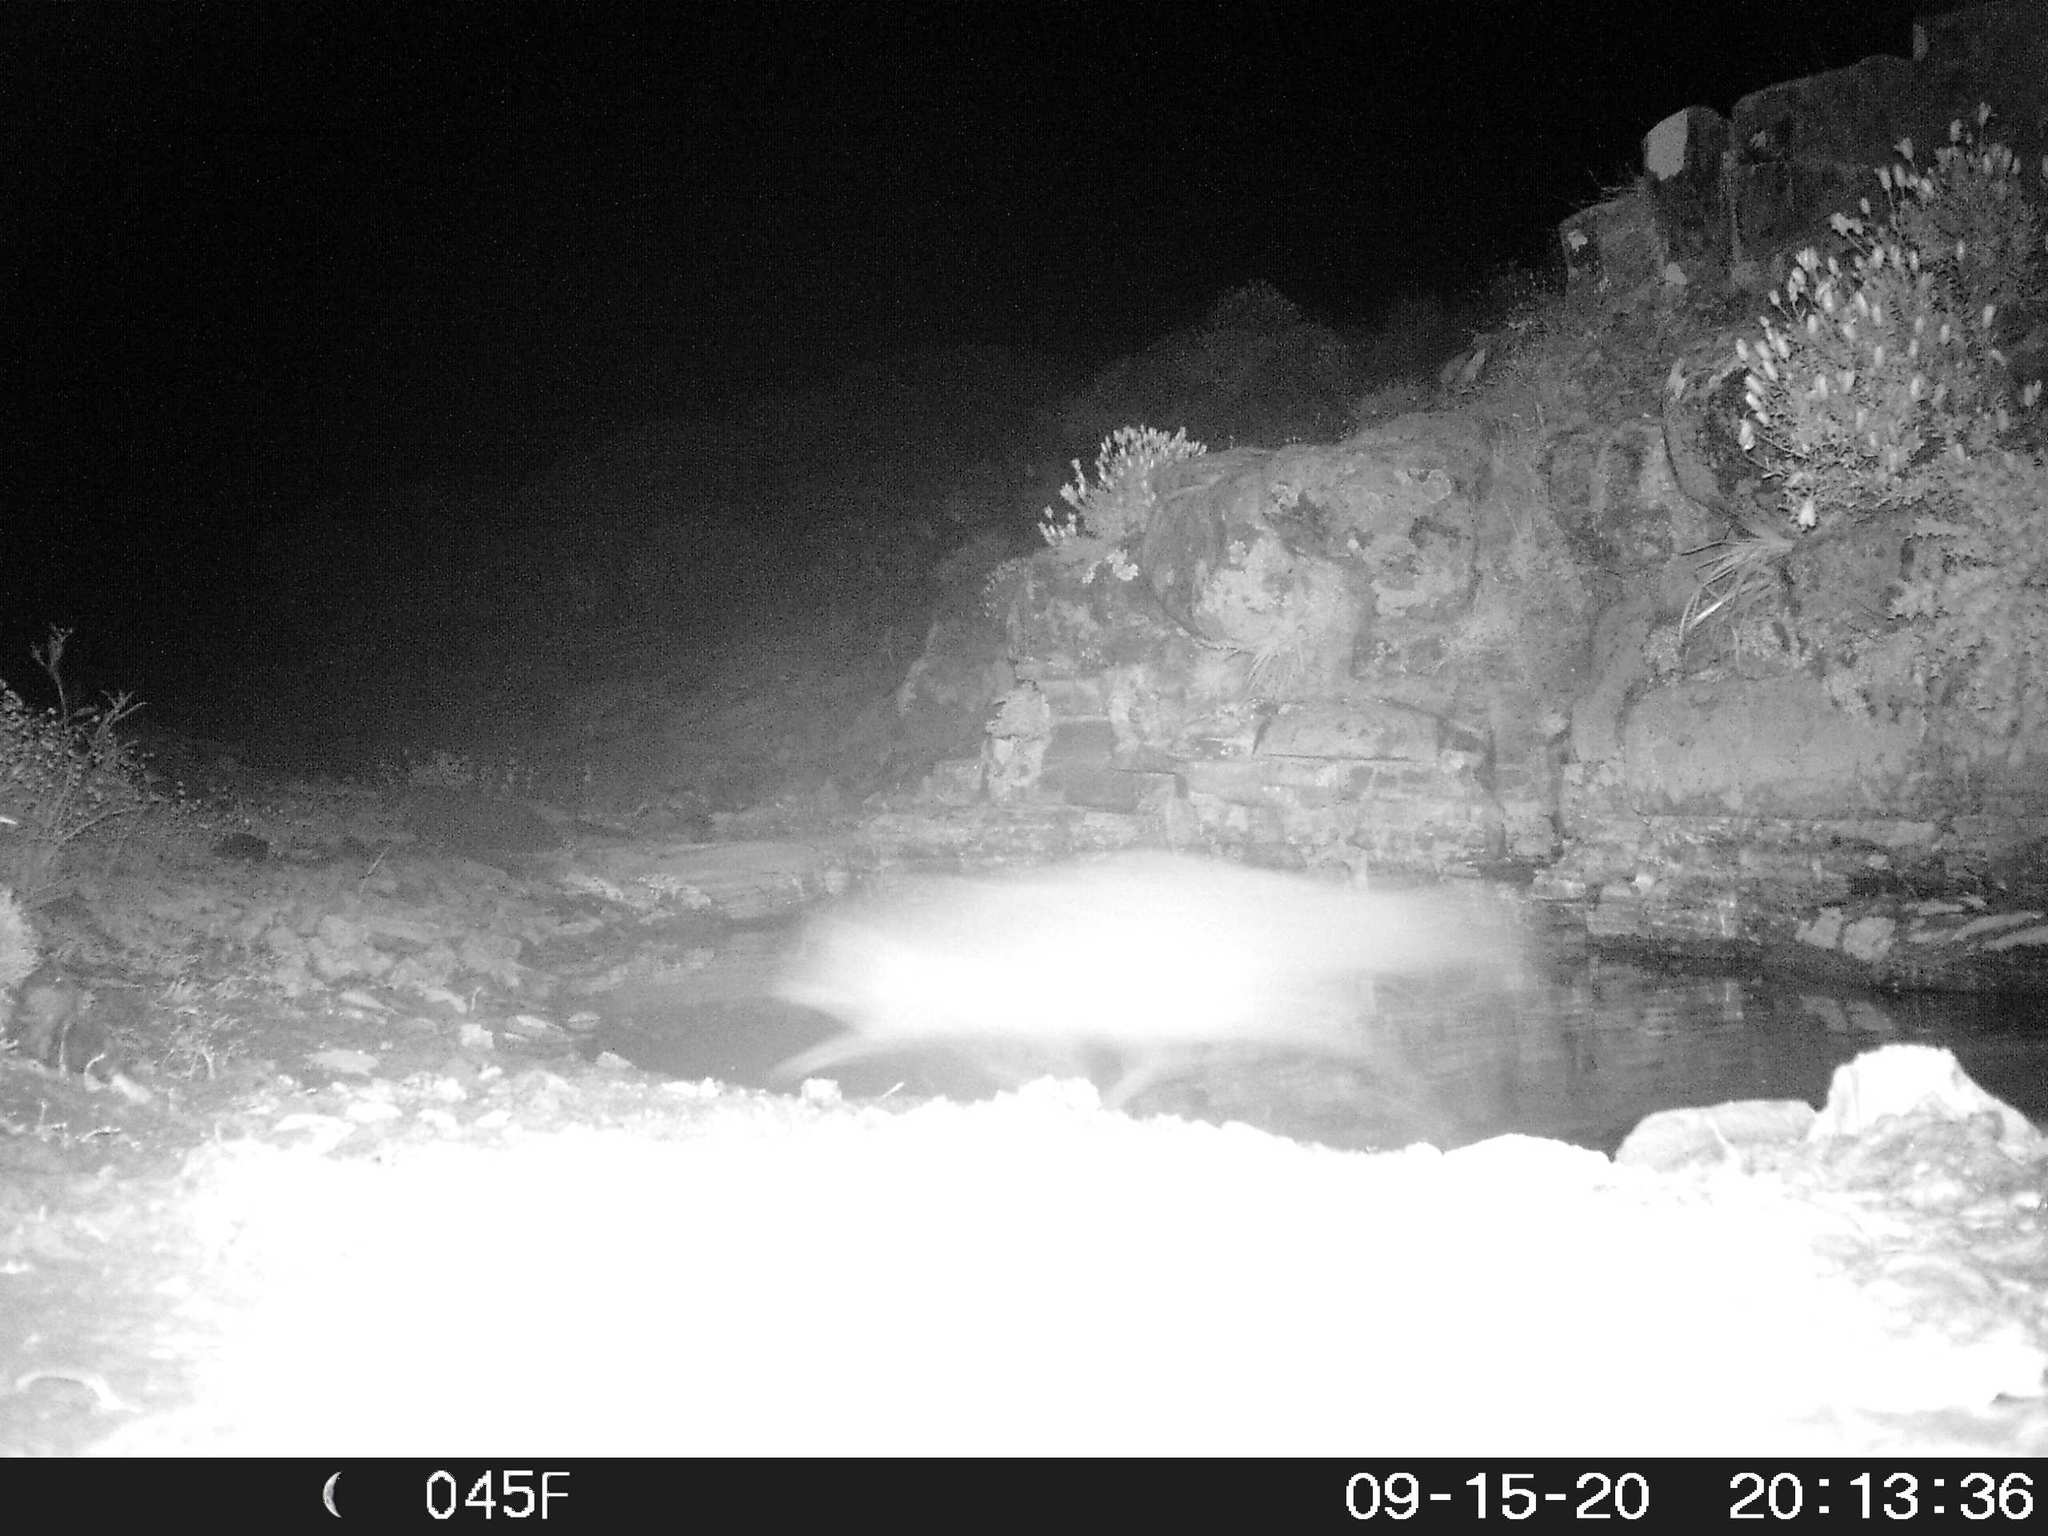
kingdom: Animalia
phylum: Chordata
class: Mammalia
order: Carnivora
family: Herpestidae
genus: Cynictis
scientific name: Cynictis penicillata
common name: Yellow mongoose
